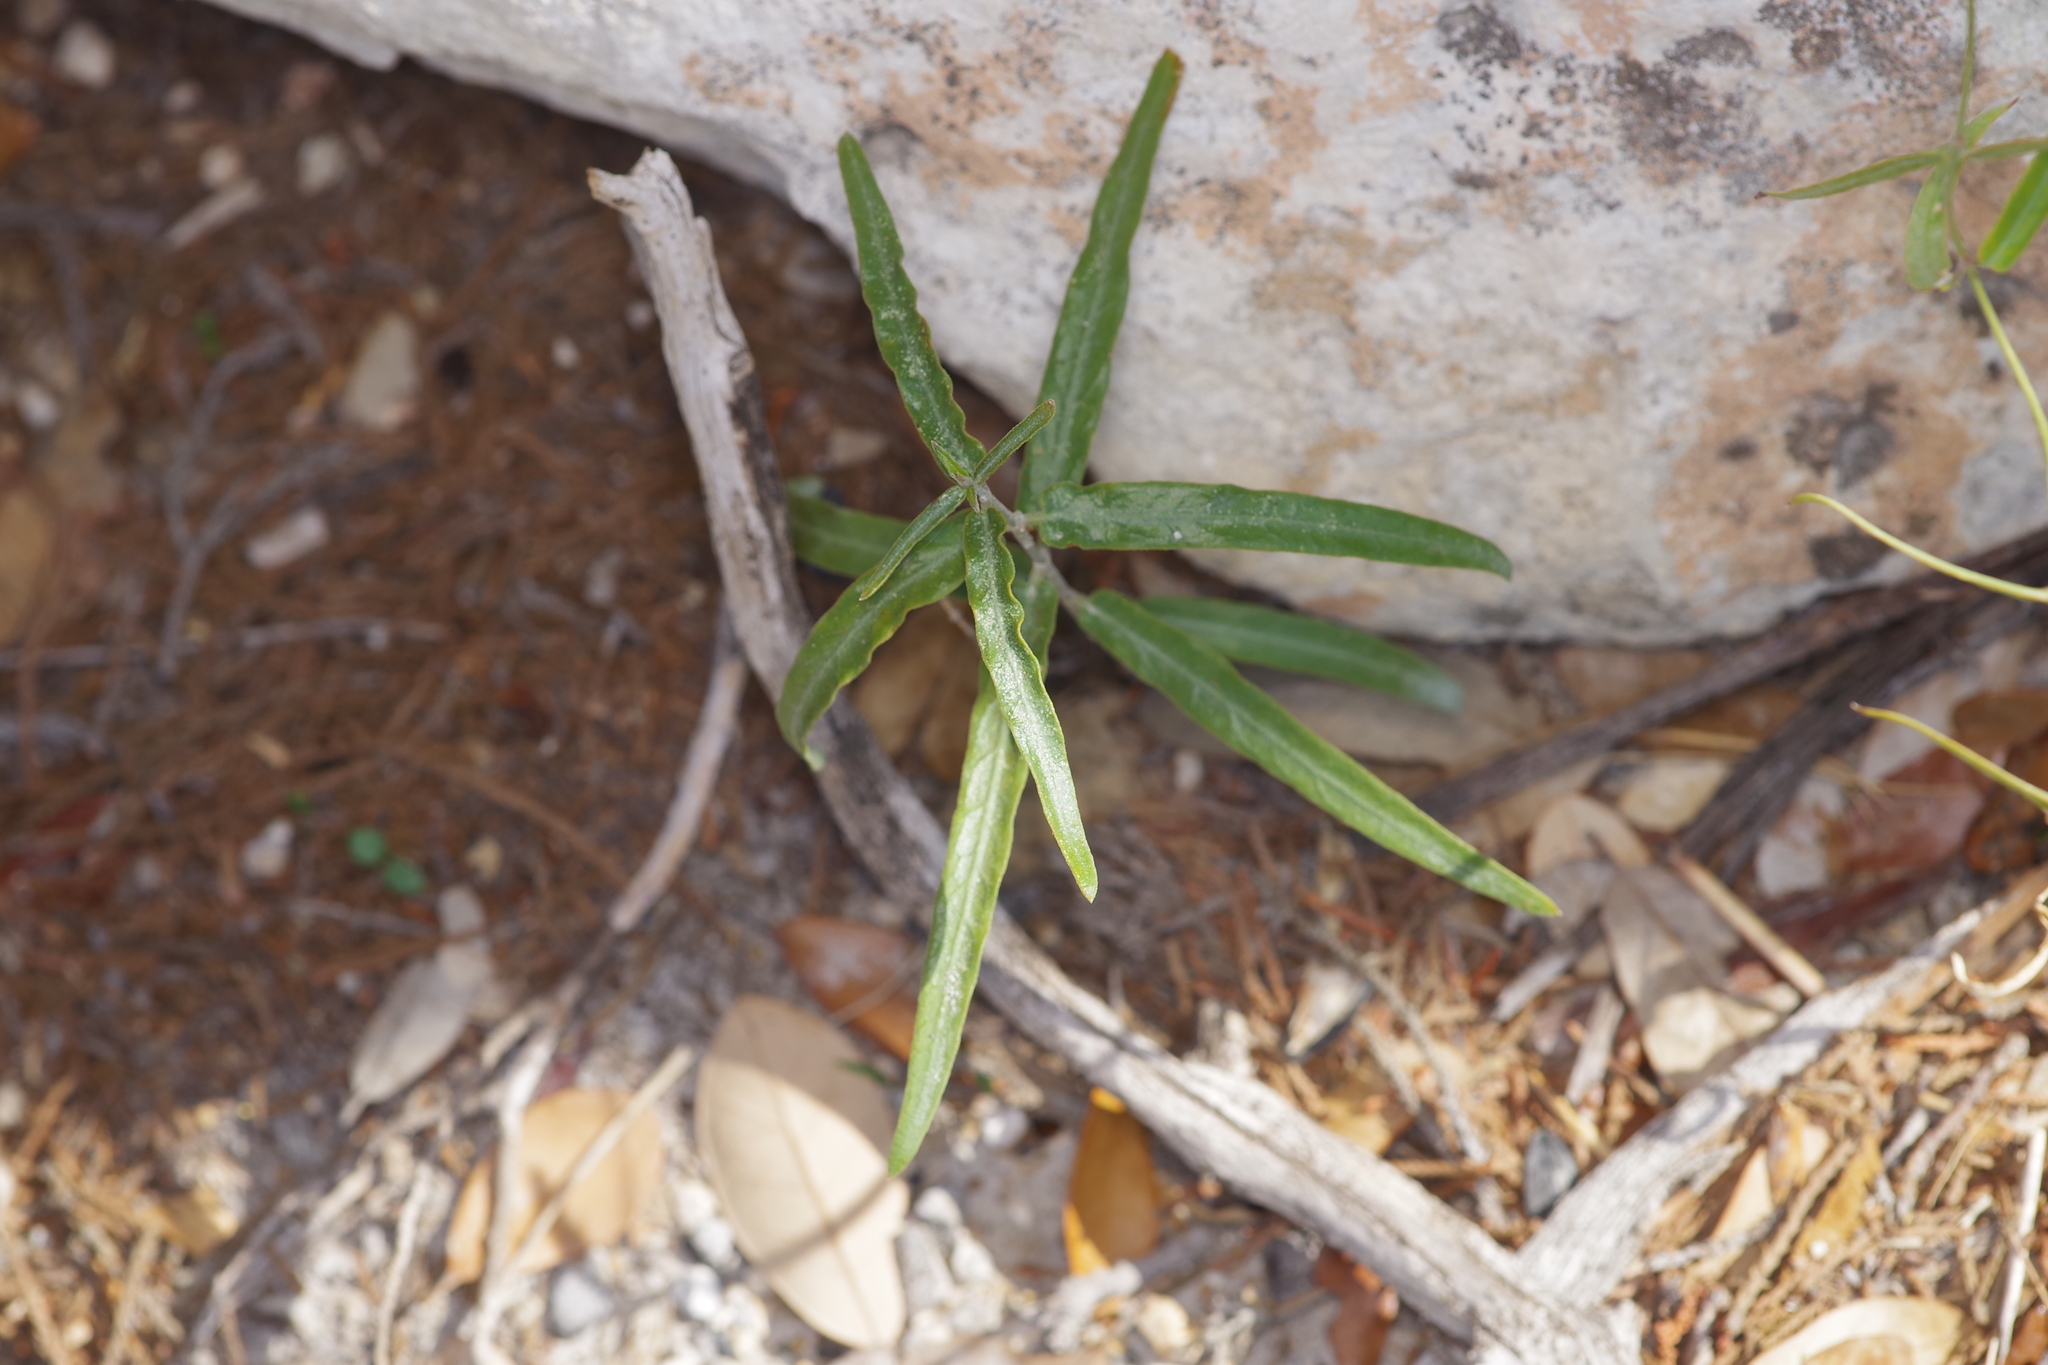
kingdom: Plantae
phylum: Tracheophyta
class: Magnoliopsida
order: Gentianales
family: Apocynaceae
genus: Funastrum
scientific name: Funastrum crispum
